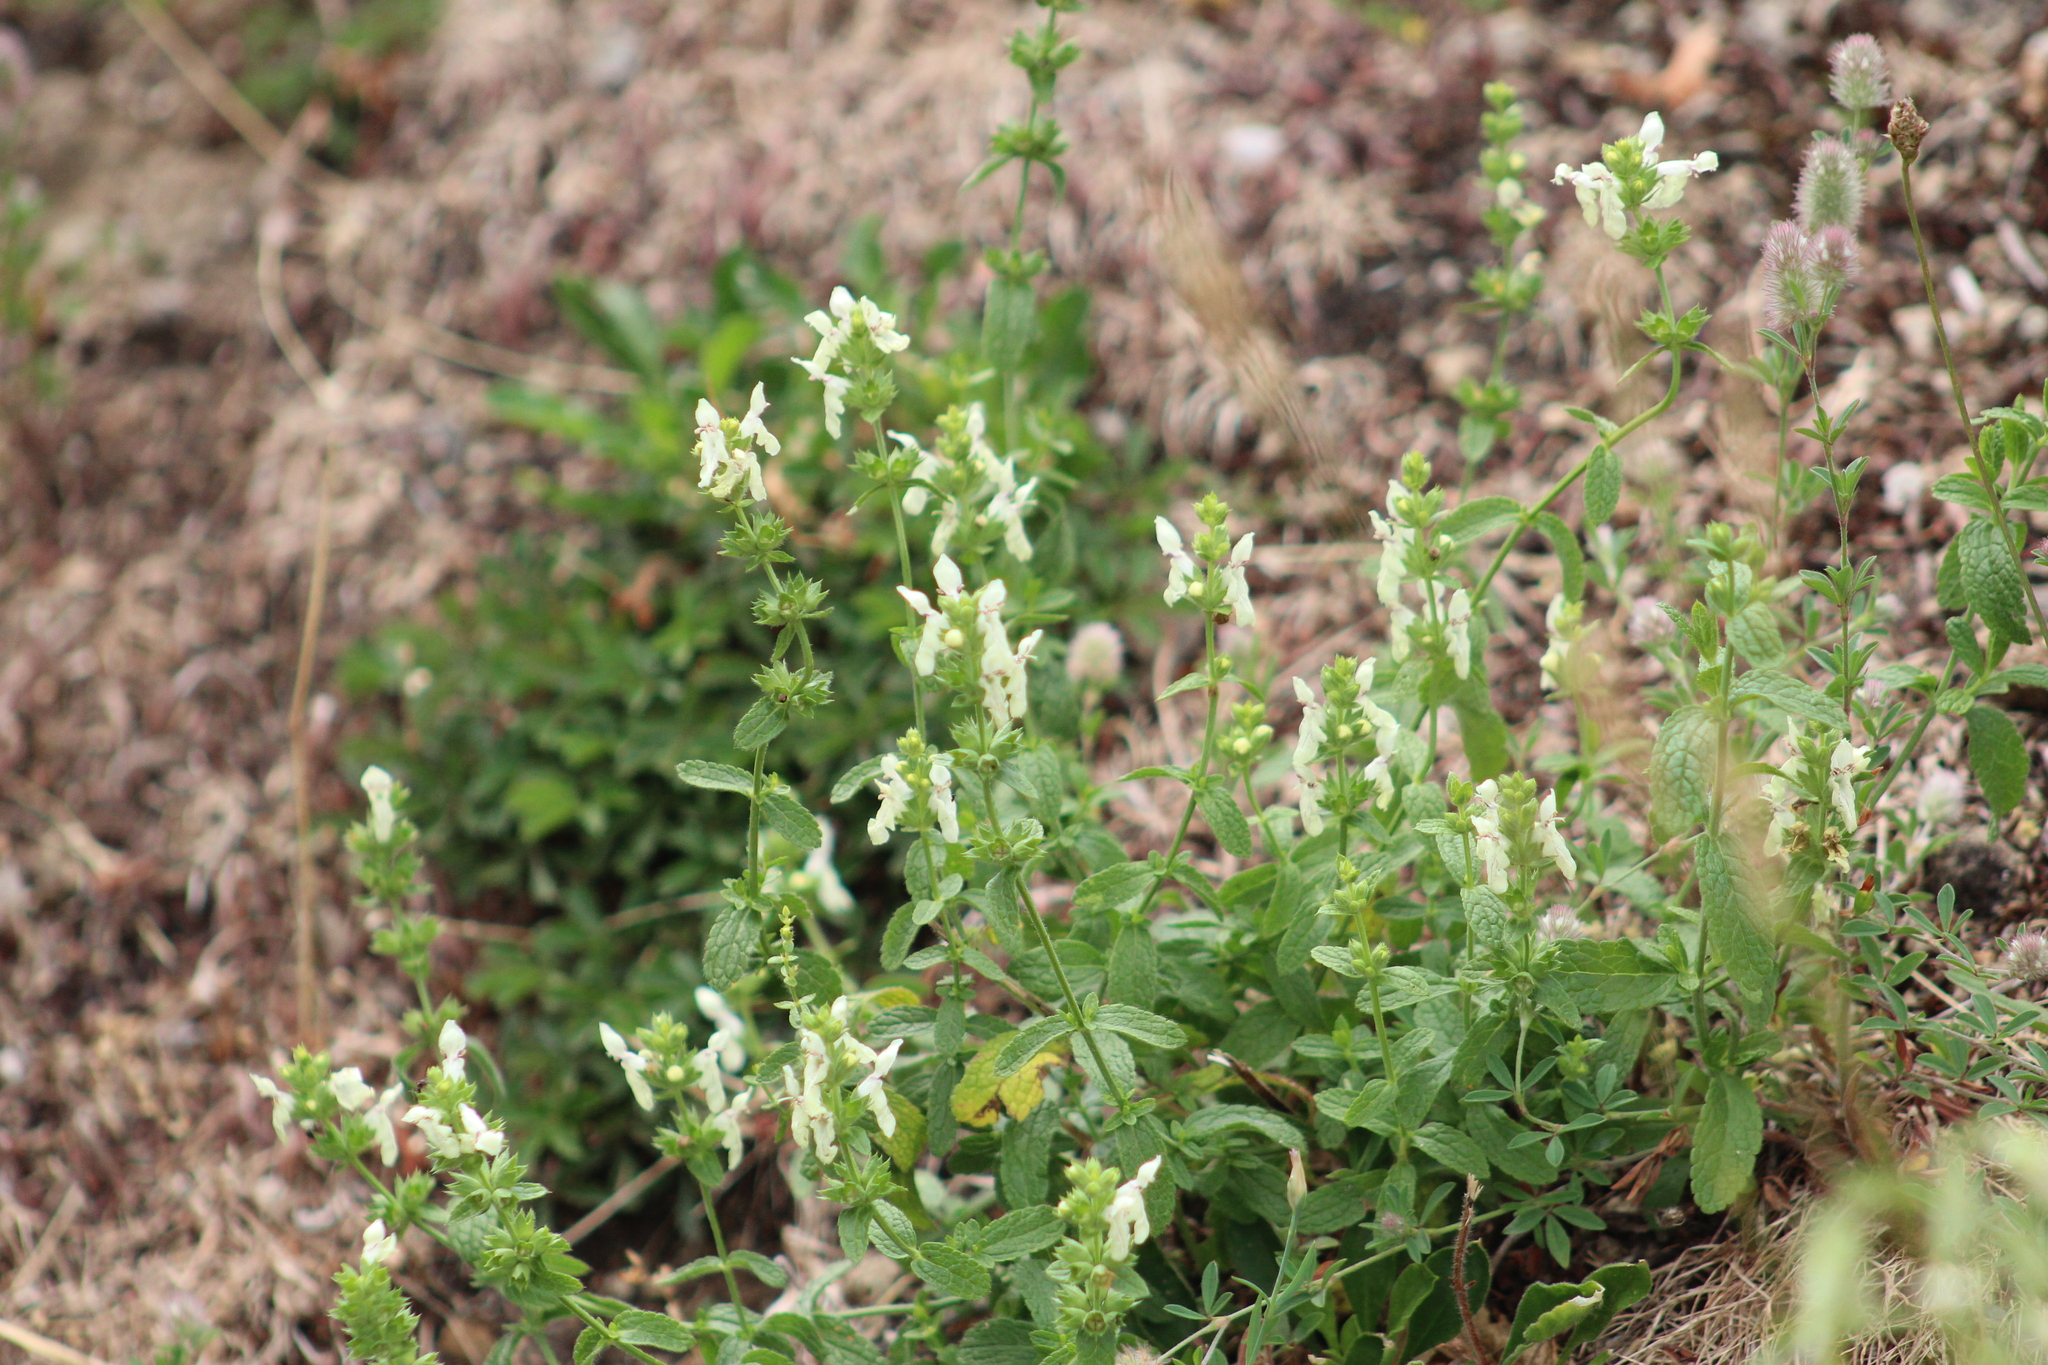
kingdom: Plantae
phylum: Tracheophyta
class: Magnoliopsida
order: Lamiales
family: Lamiaceae
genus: Stachys
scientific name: Stachys recta
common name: Perennial yellow-woundwort
